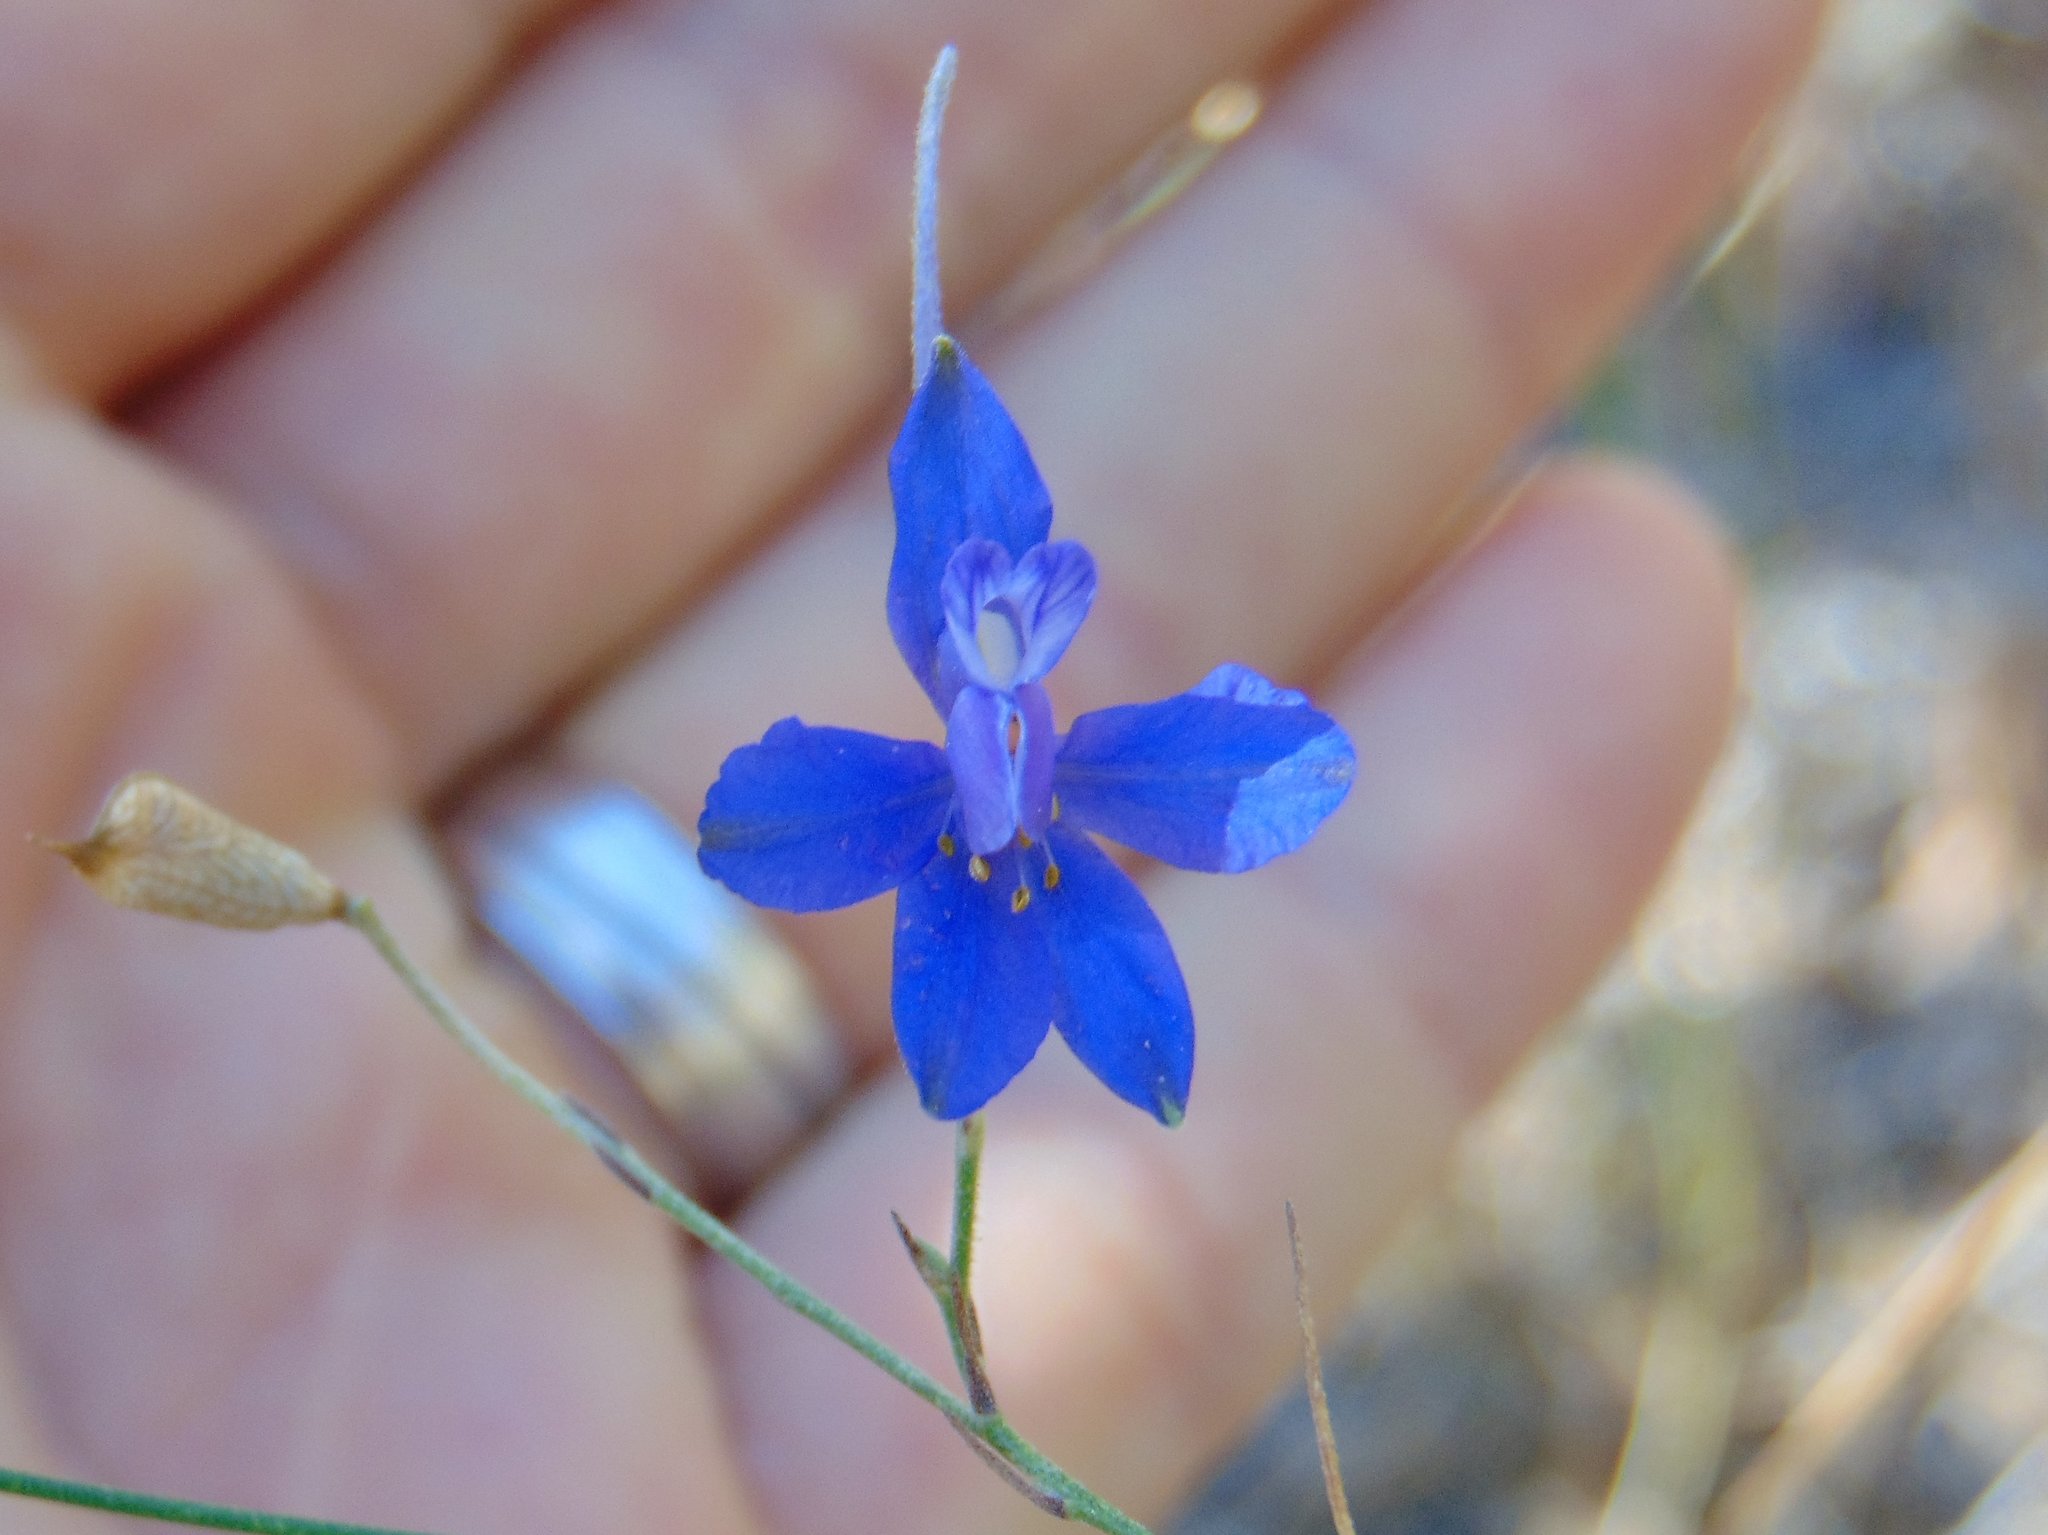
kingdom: Plantae
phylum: Tracheophyta
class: Magnoliopsida
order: Ranunculales
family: Ranunculaceae
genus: Delphinium
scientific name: Delphinium consolida
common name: Branching larkspur
